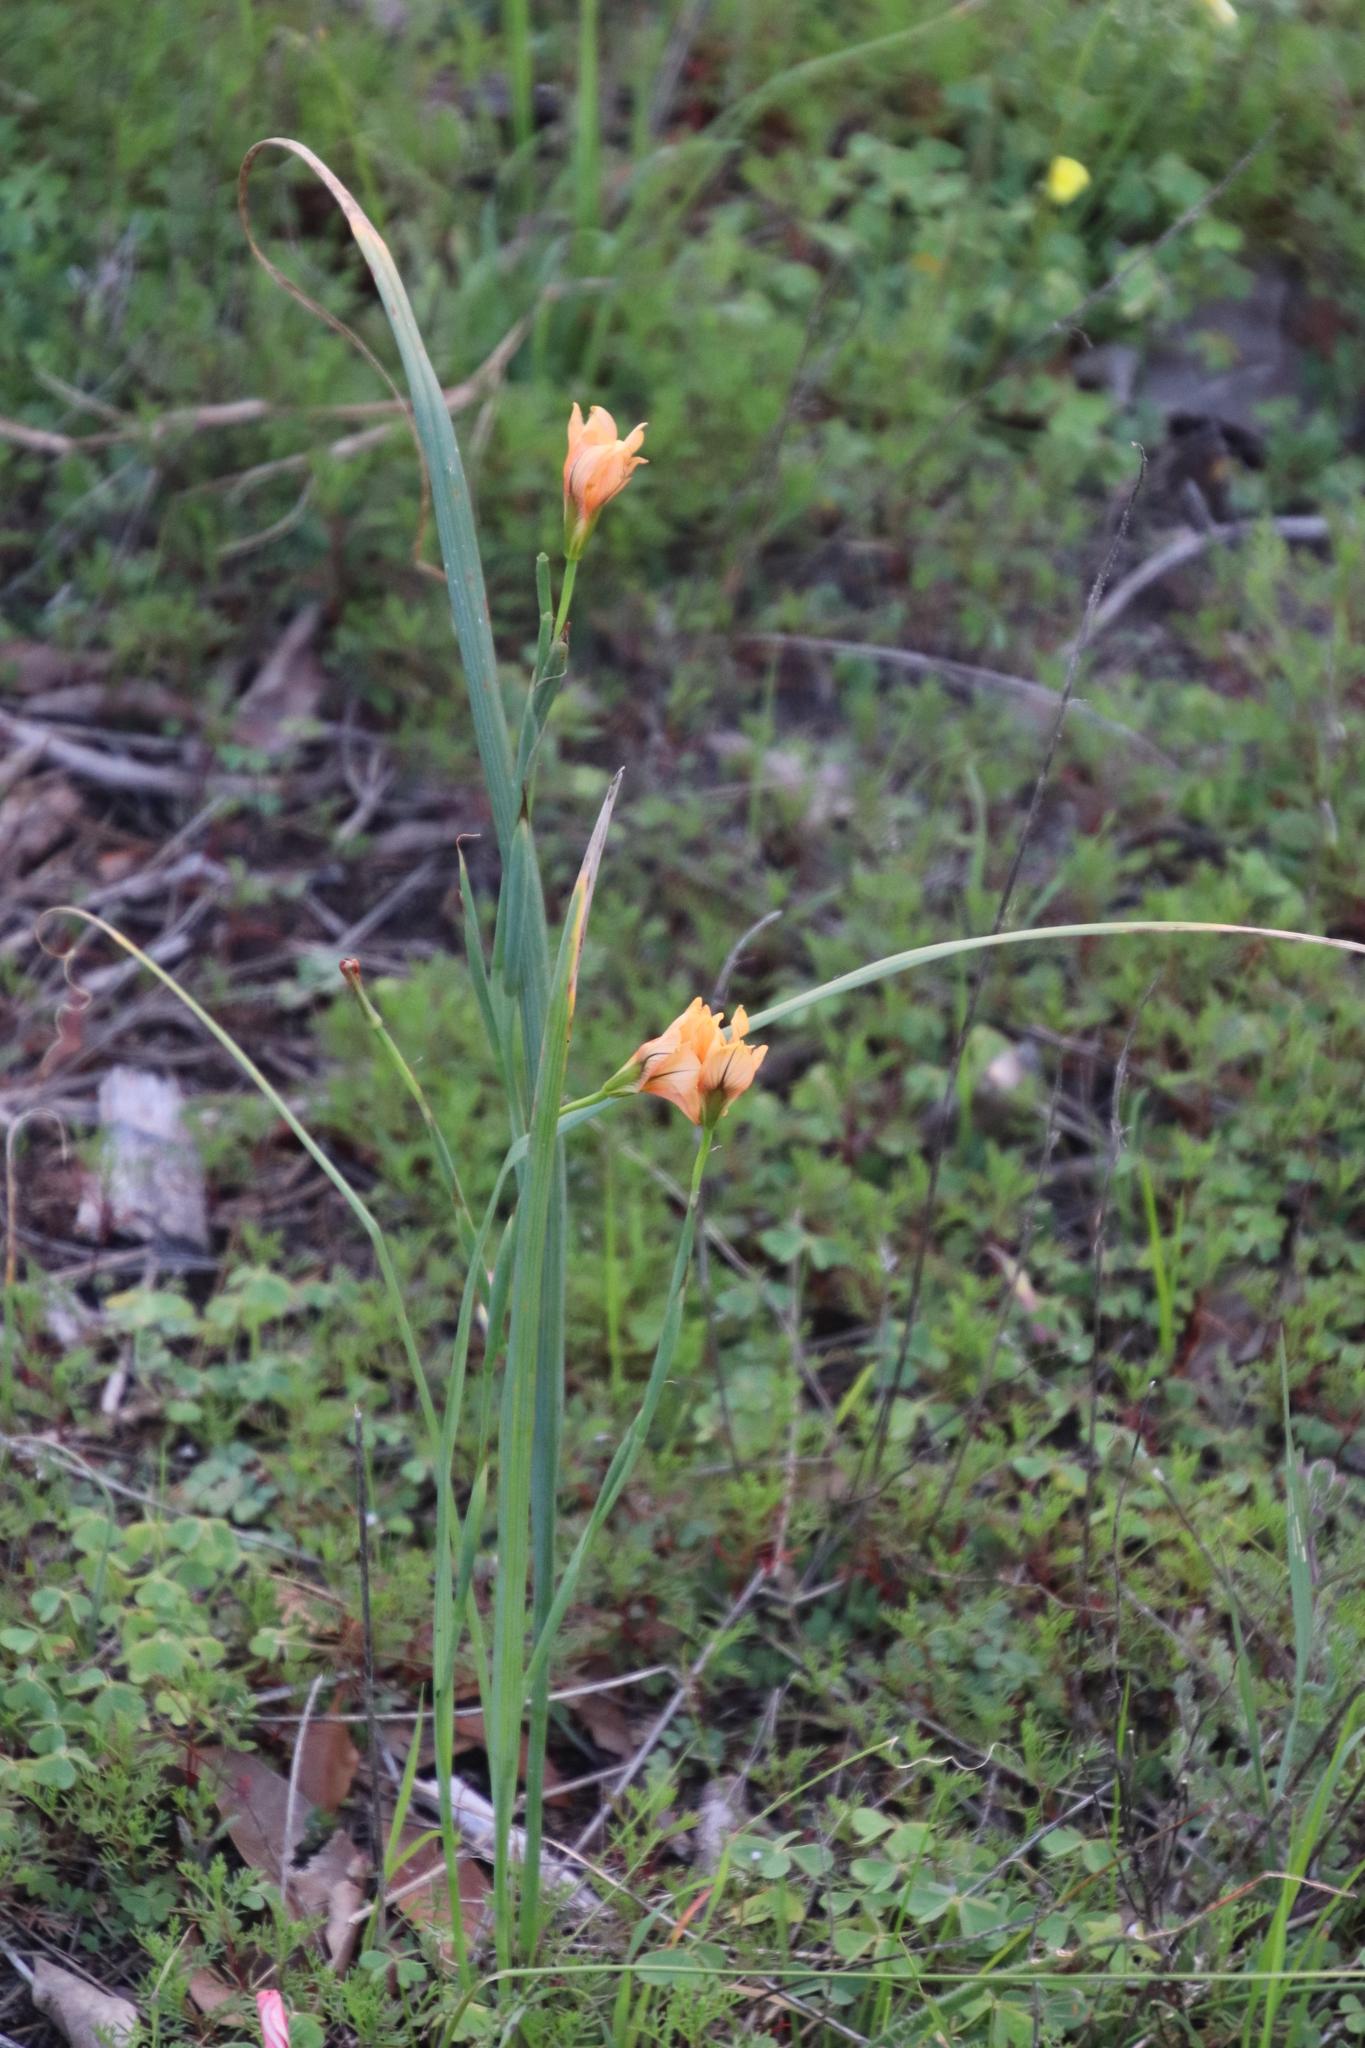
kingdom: Plantae
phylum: Tracheophyta
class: Liliopsida
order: Asparagales
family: Iridaceae
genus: Moraea
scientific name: Moraea flaccida
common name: One-leaf cape-tulip
